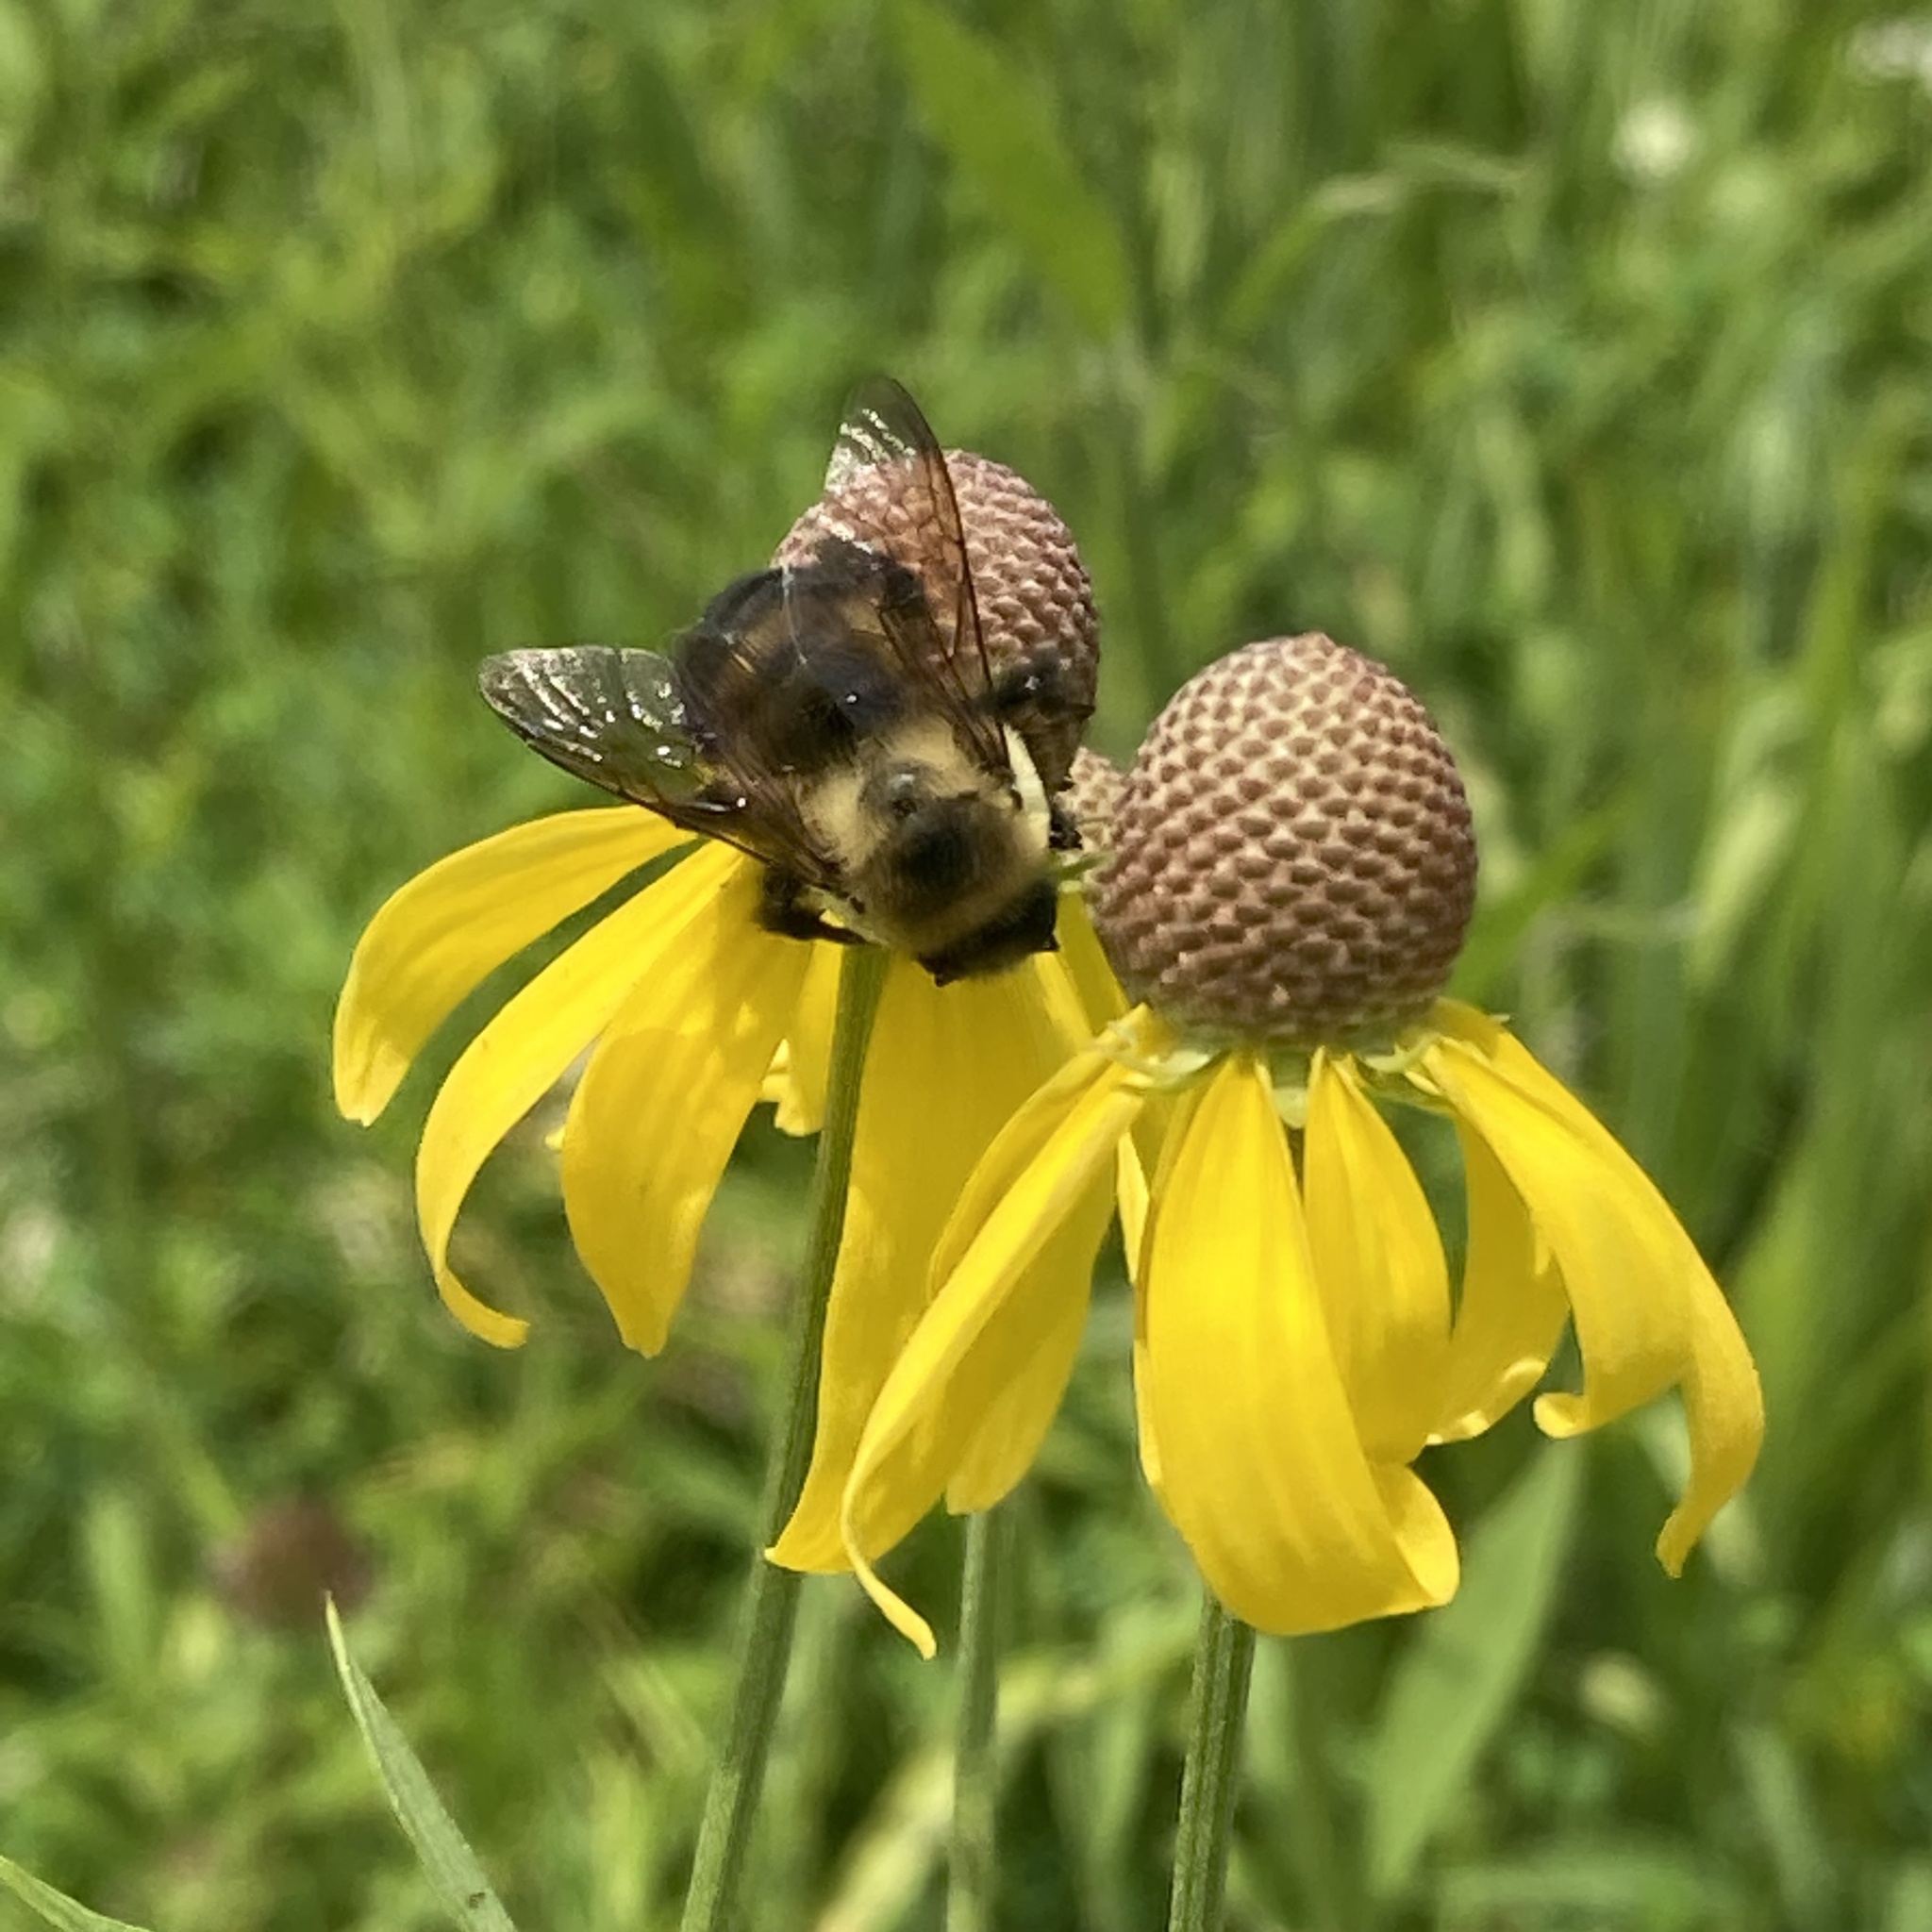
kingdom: Animalia
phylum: Arthropoda
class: Insecta
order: Hymenoptera
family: Apidae
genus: Bombus
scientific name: Bombus griseocollis
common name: Brown-belted bumble bee
